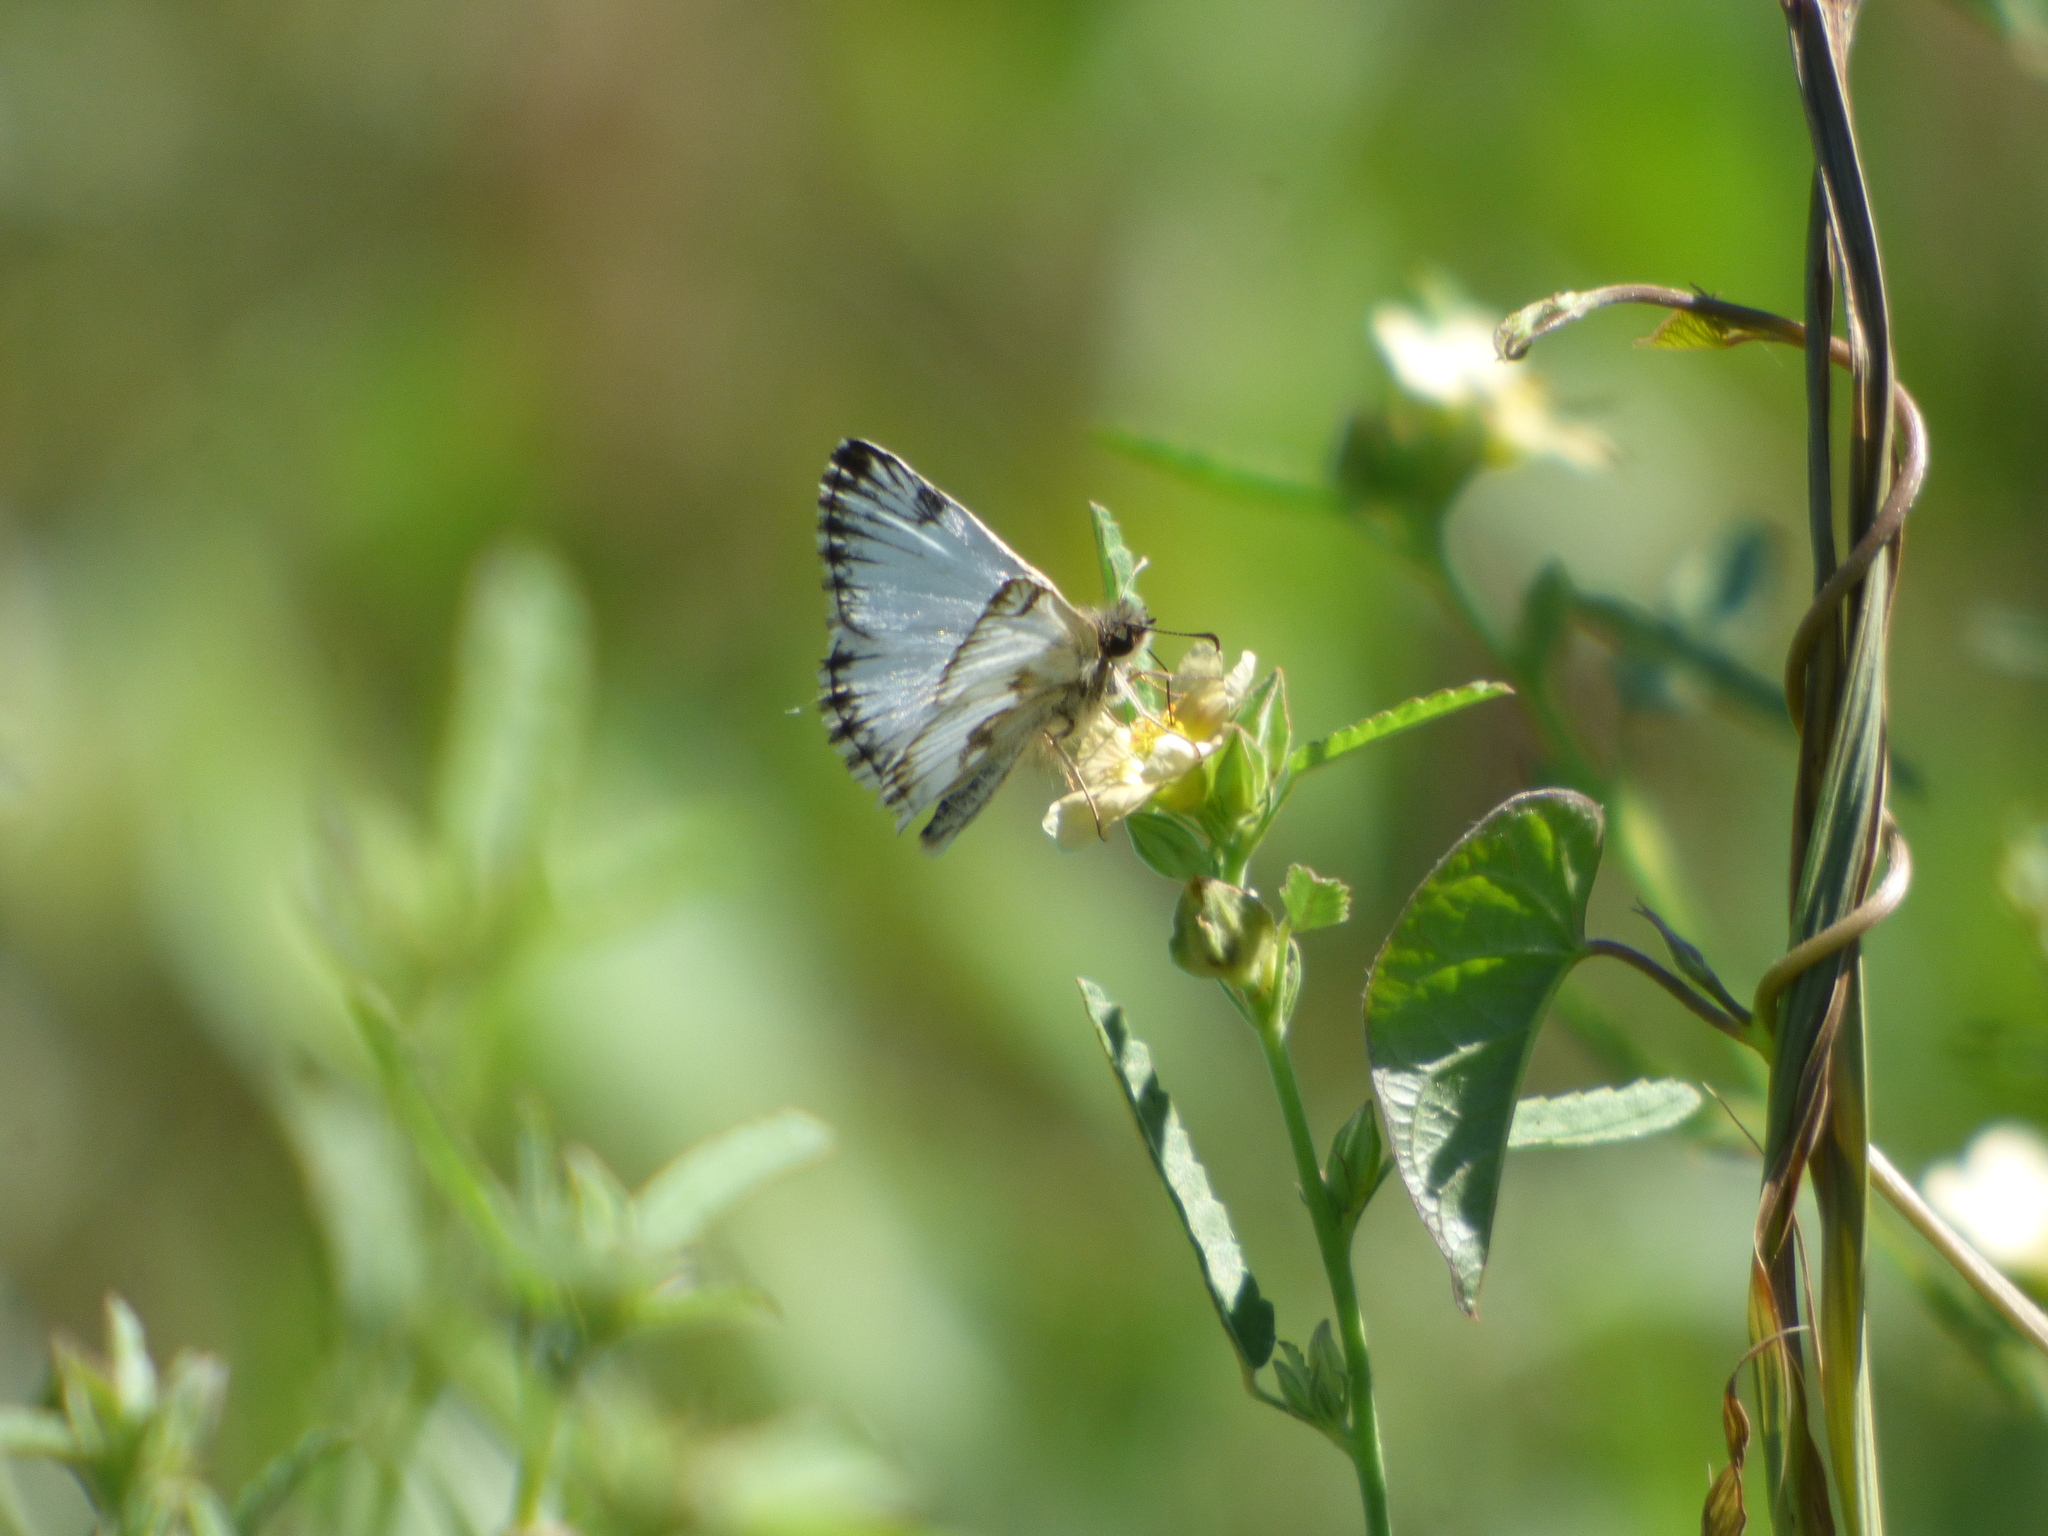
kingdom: Animalia
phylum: Arthropoda
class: Insecta
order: Lepidoptera
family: Hesperiidae
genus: Heliopetes
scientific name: Heliopetes omrina
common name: Stained white-skipper
